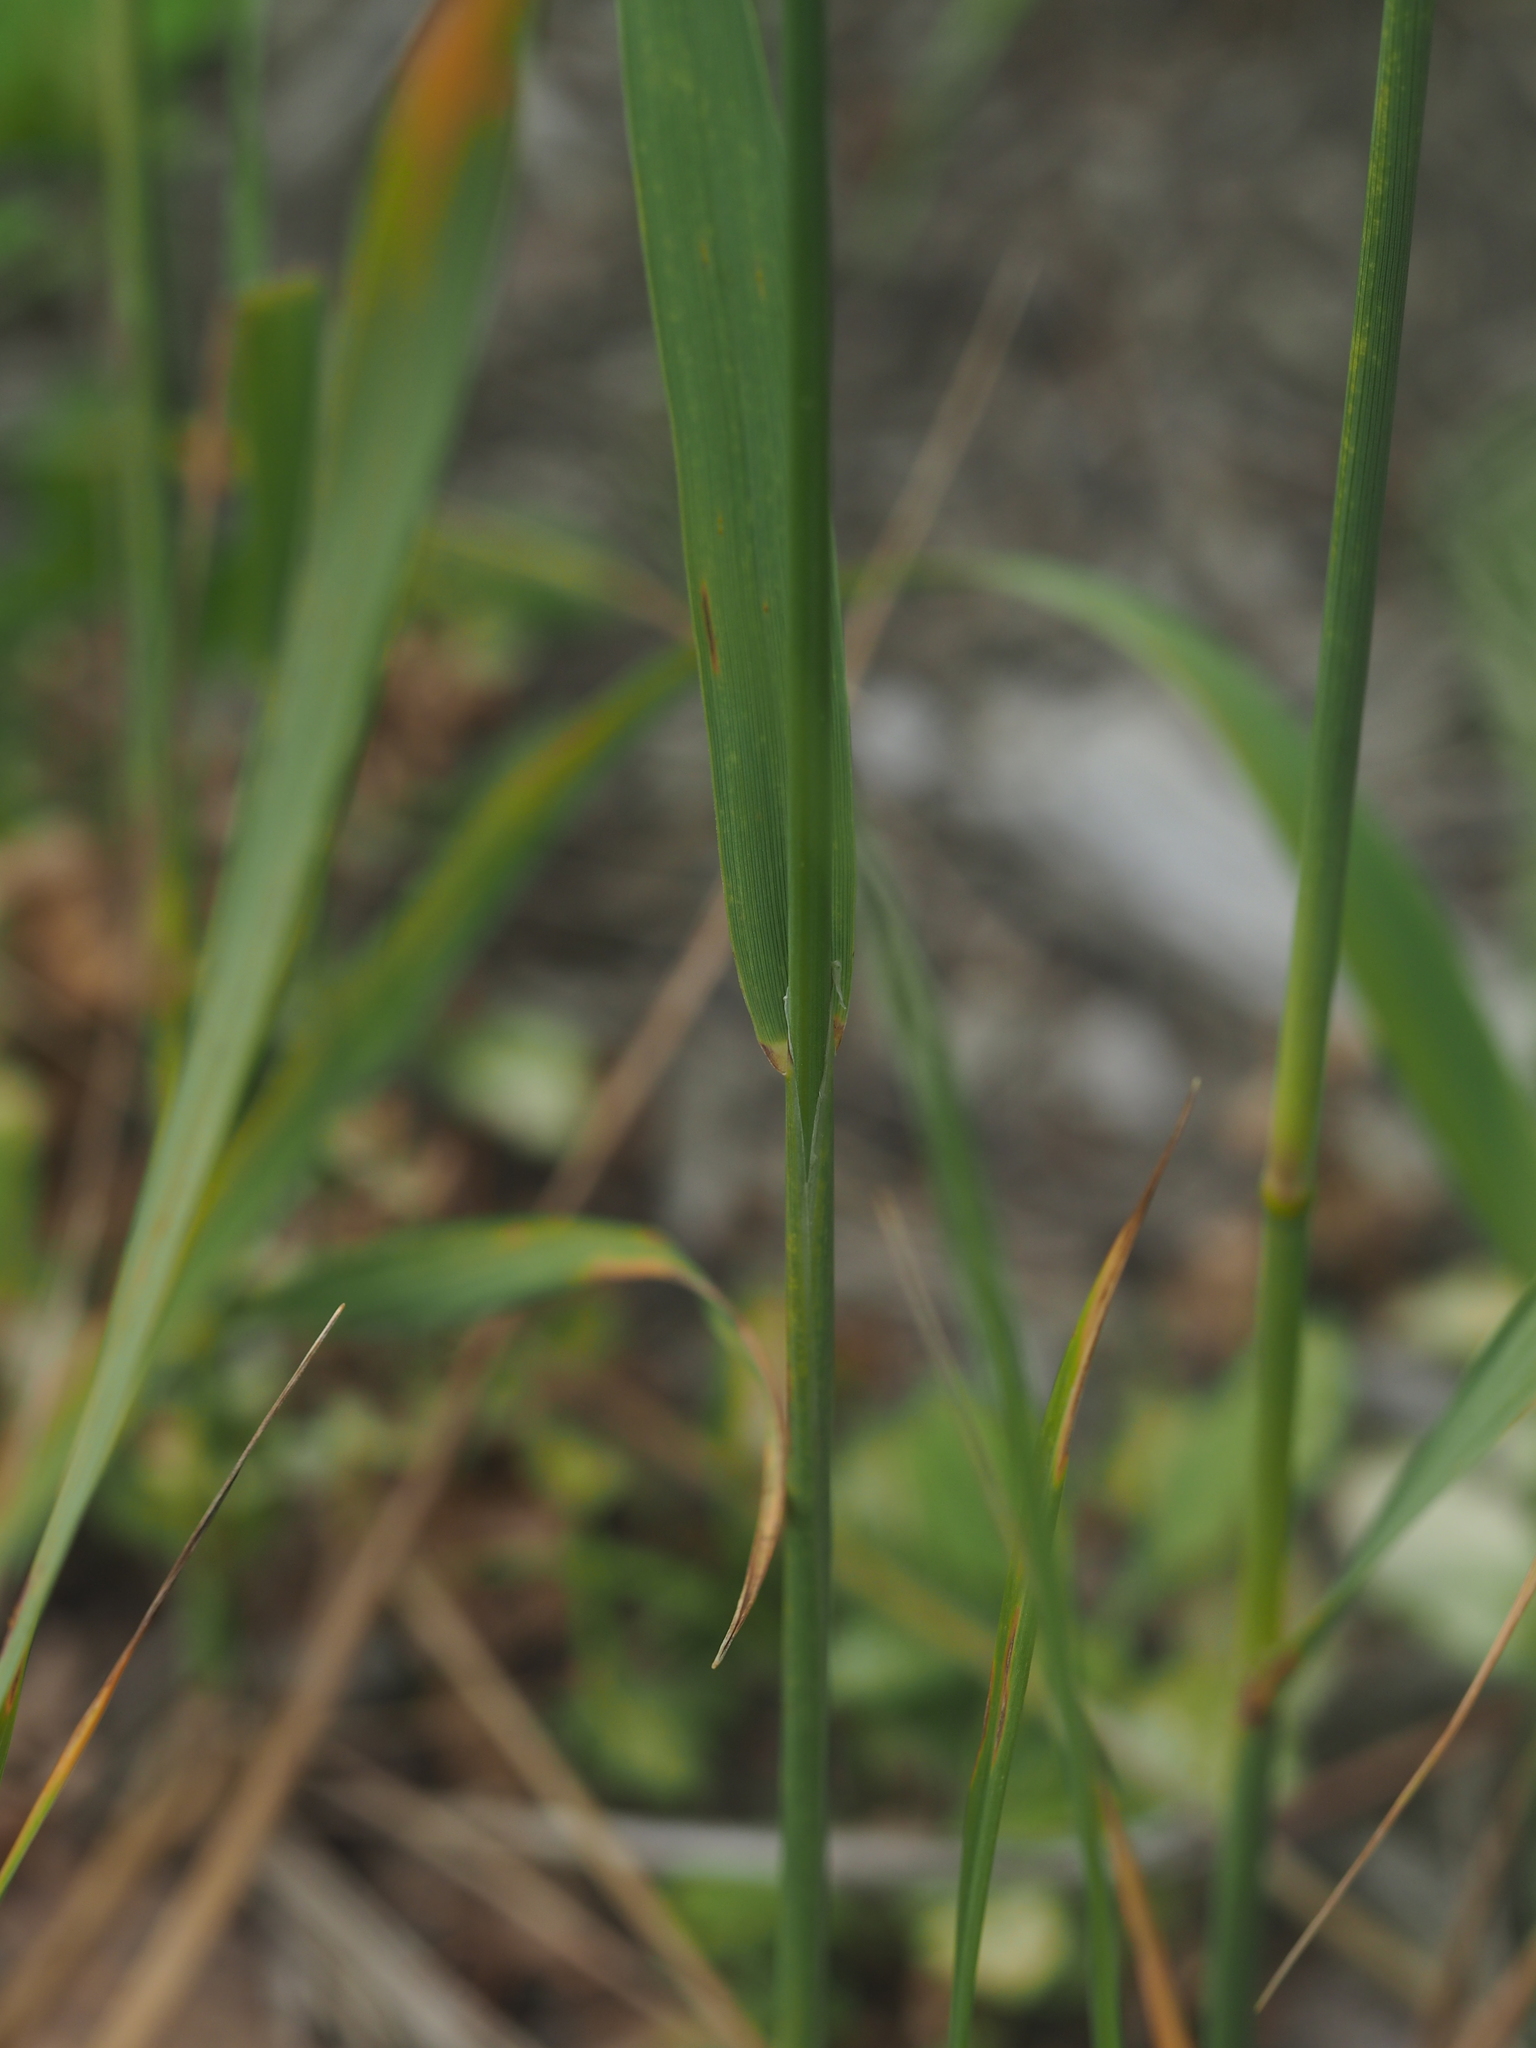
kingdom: Plantae
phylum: Tracheophyta
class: Liliopsida
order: Poales
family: Poaceae
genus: Calamagrostis
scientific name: Calamagrostis epigejos
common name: Wood small-reed
